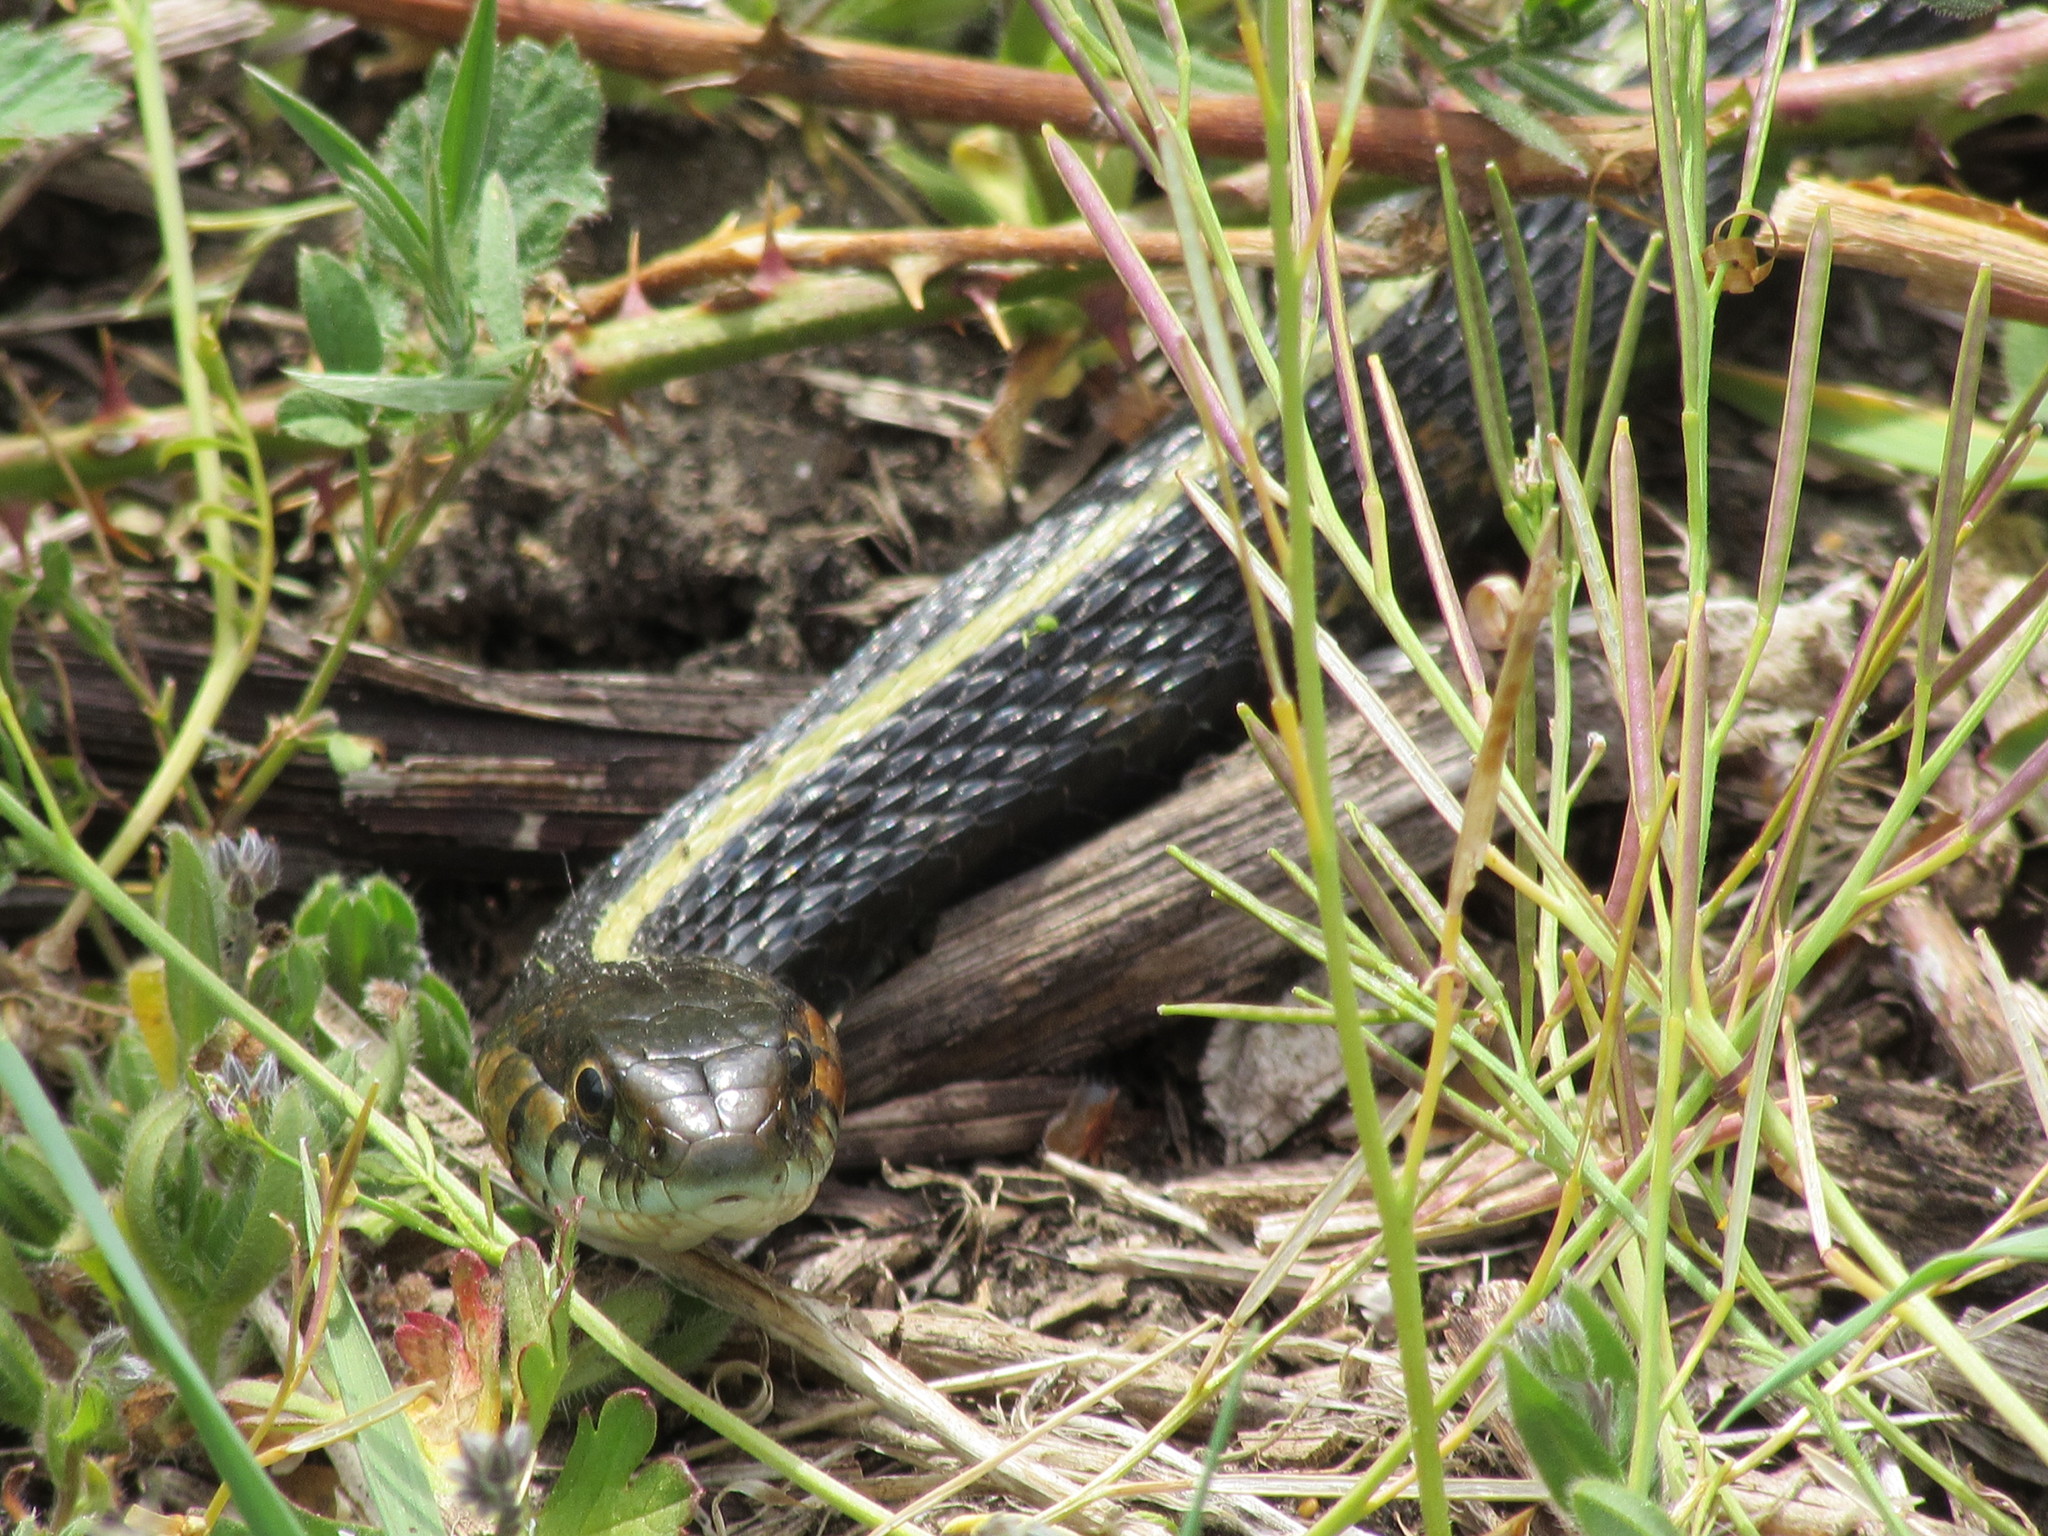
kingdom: Animalia
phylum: Chordata
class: Squamata
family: Colubridae
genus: Thamnophis
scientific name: Thamnophis sirtalis
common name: Common garter snake
